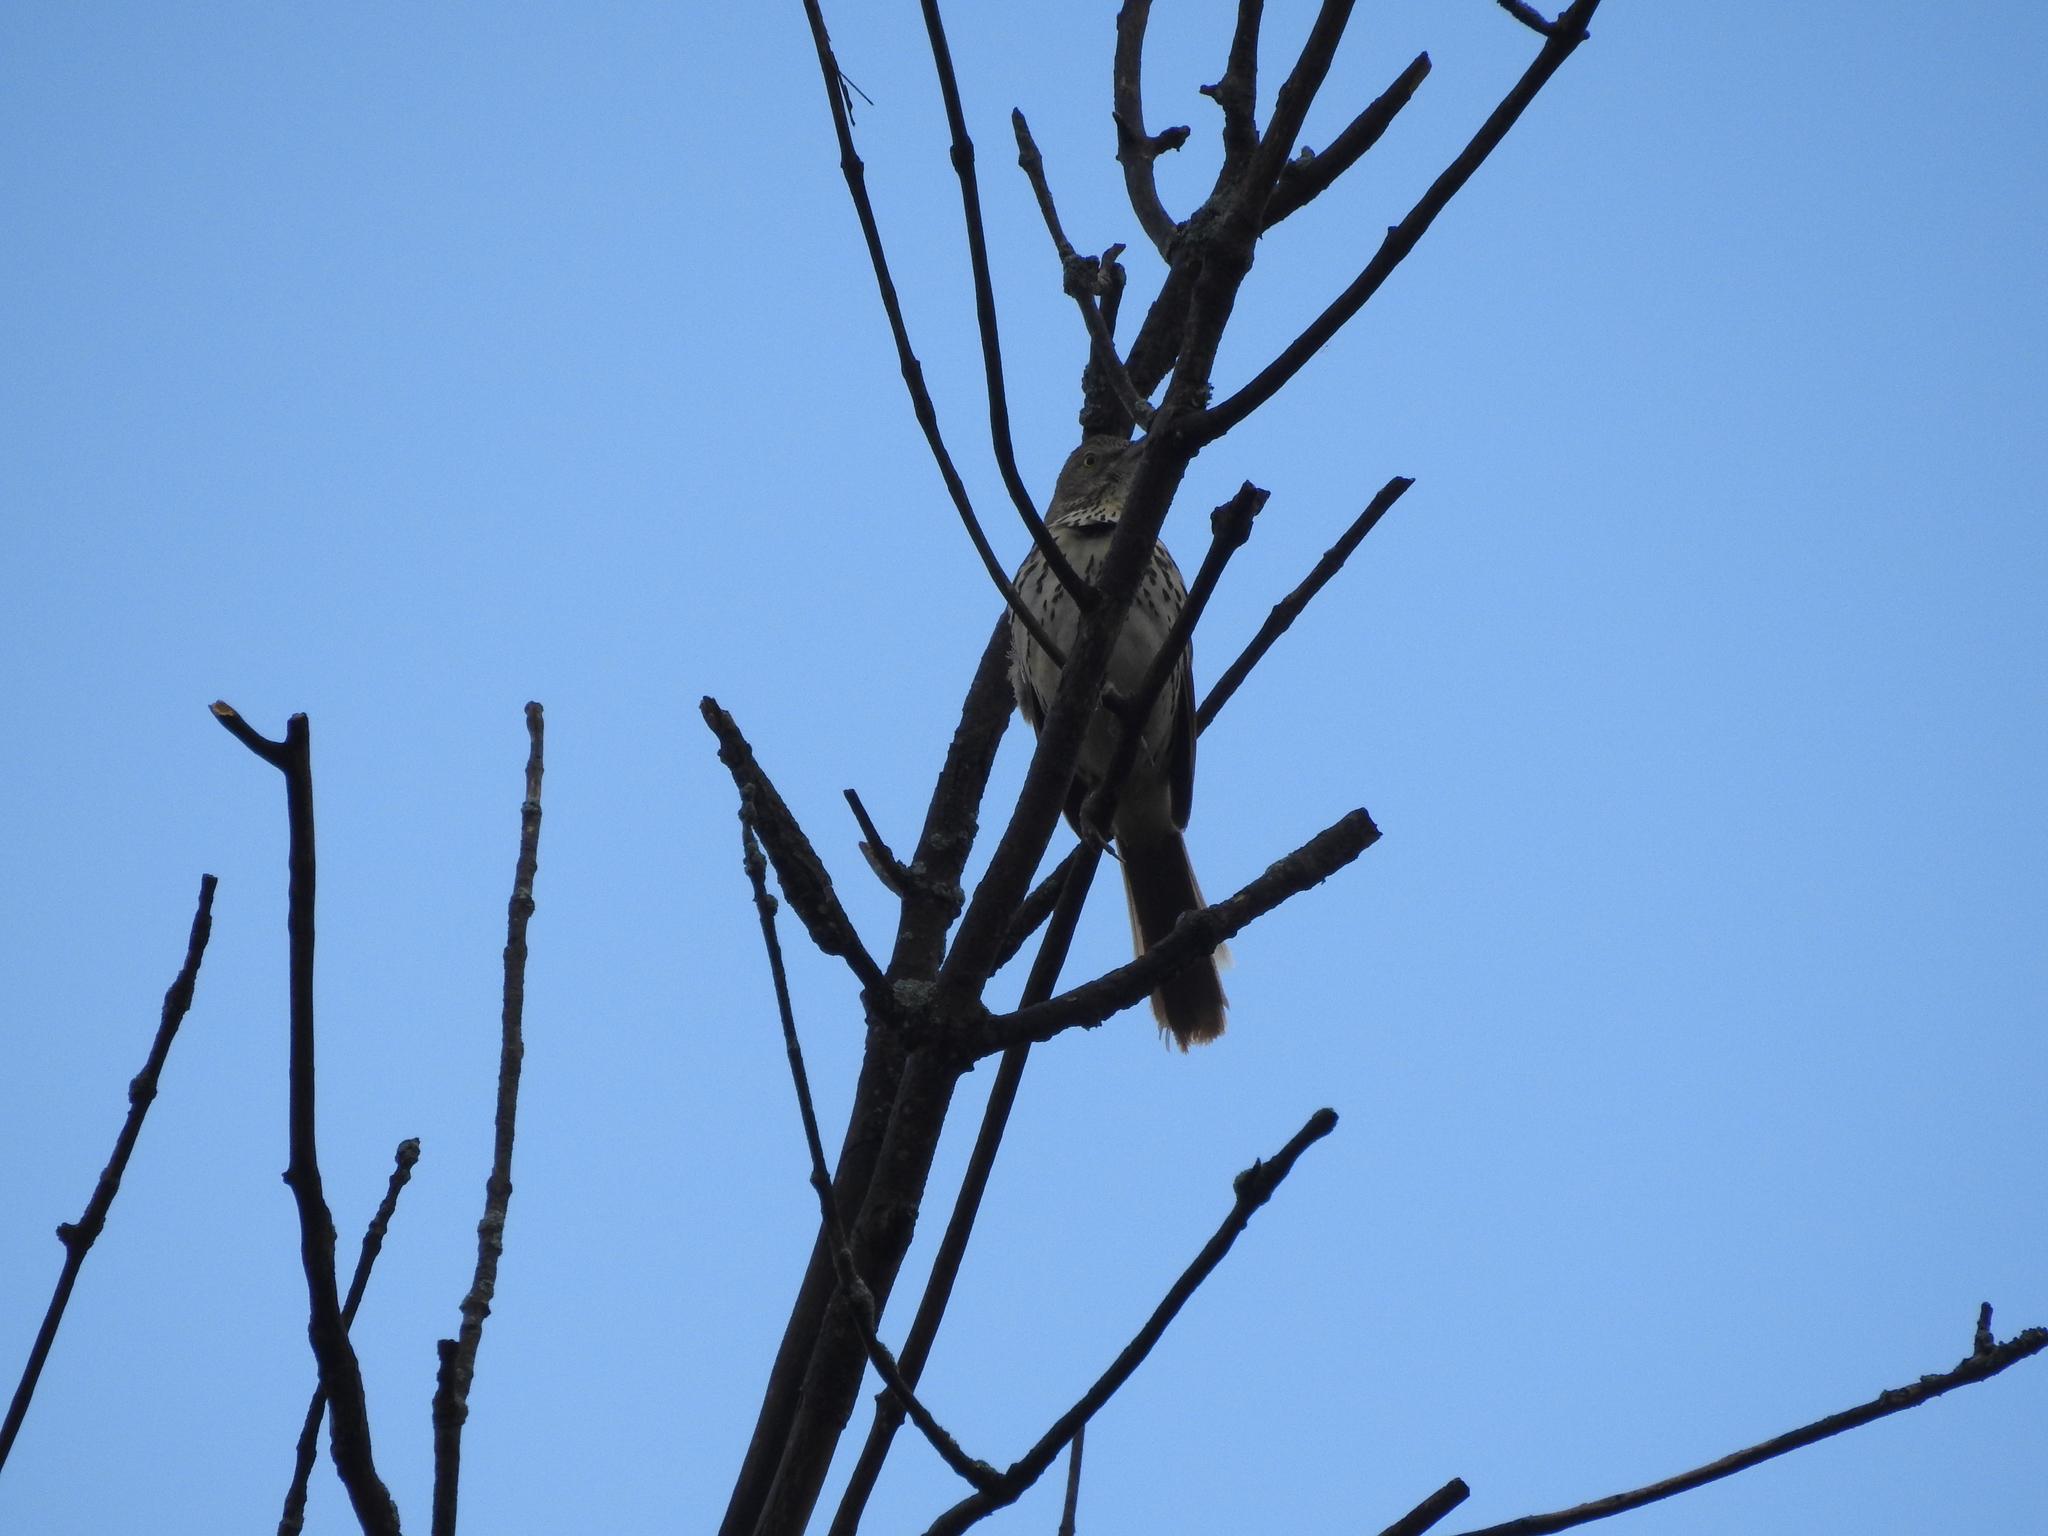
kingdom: Animalia
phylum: Chordata
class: Aves
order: Passeriformes
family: Passerellidae
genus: Melospiza
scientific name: Melospiza melodia
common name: Song sparrow
